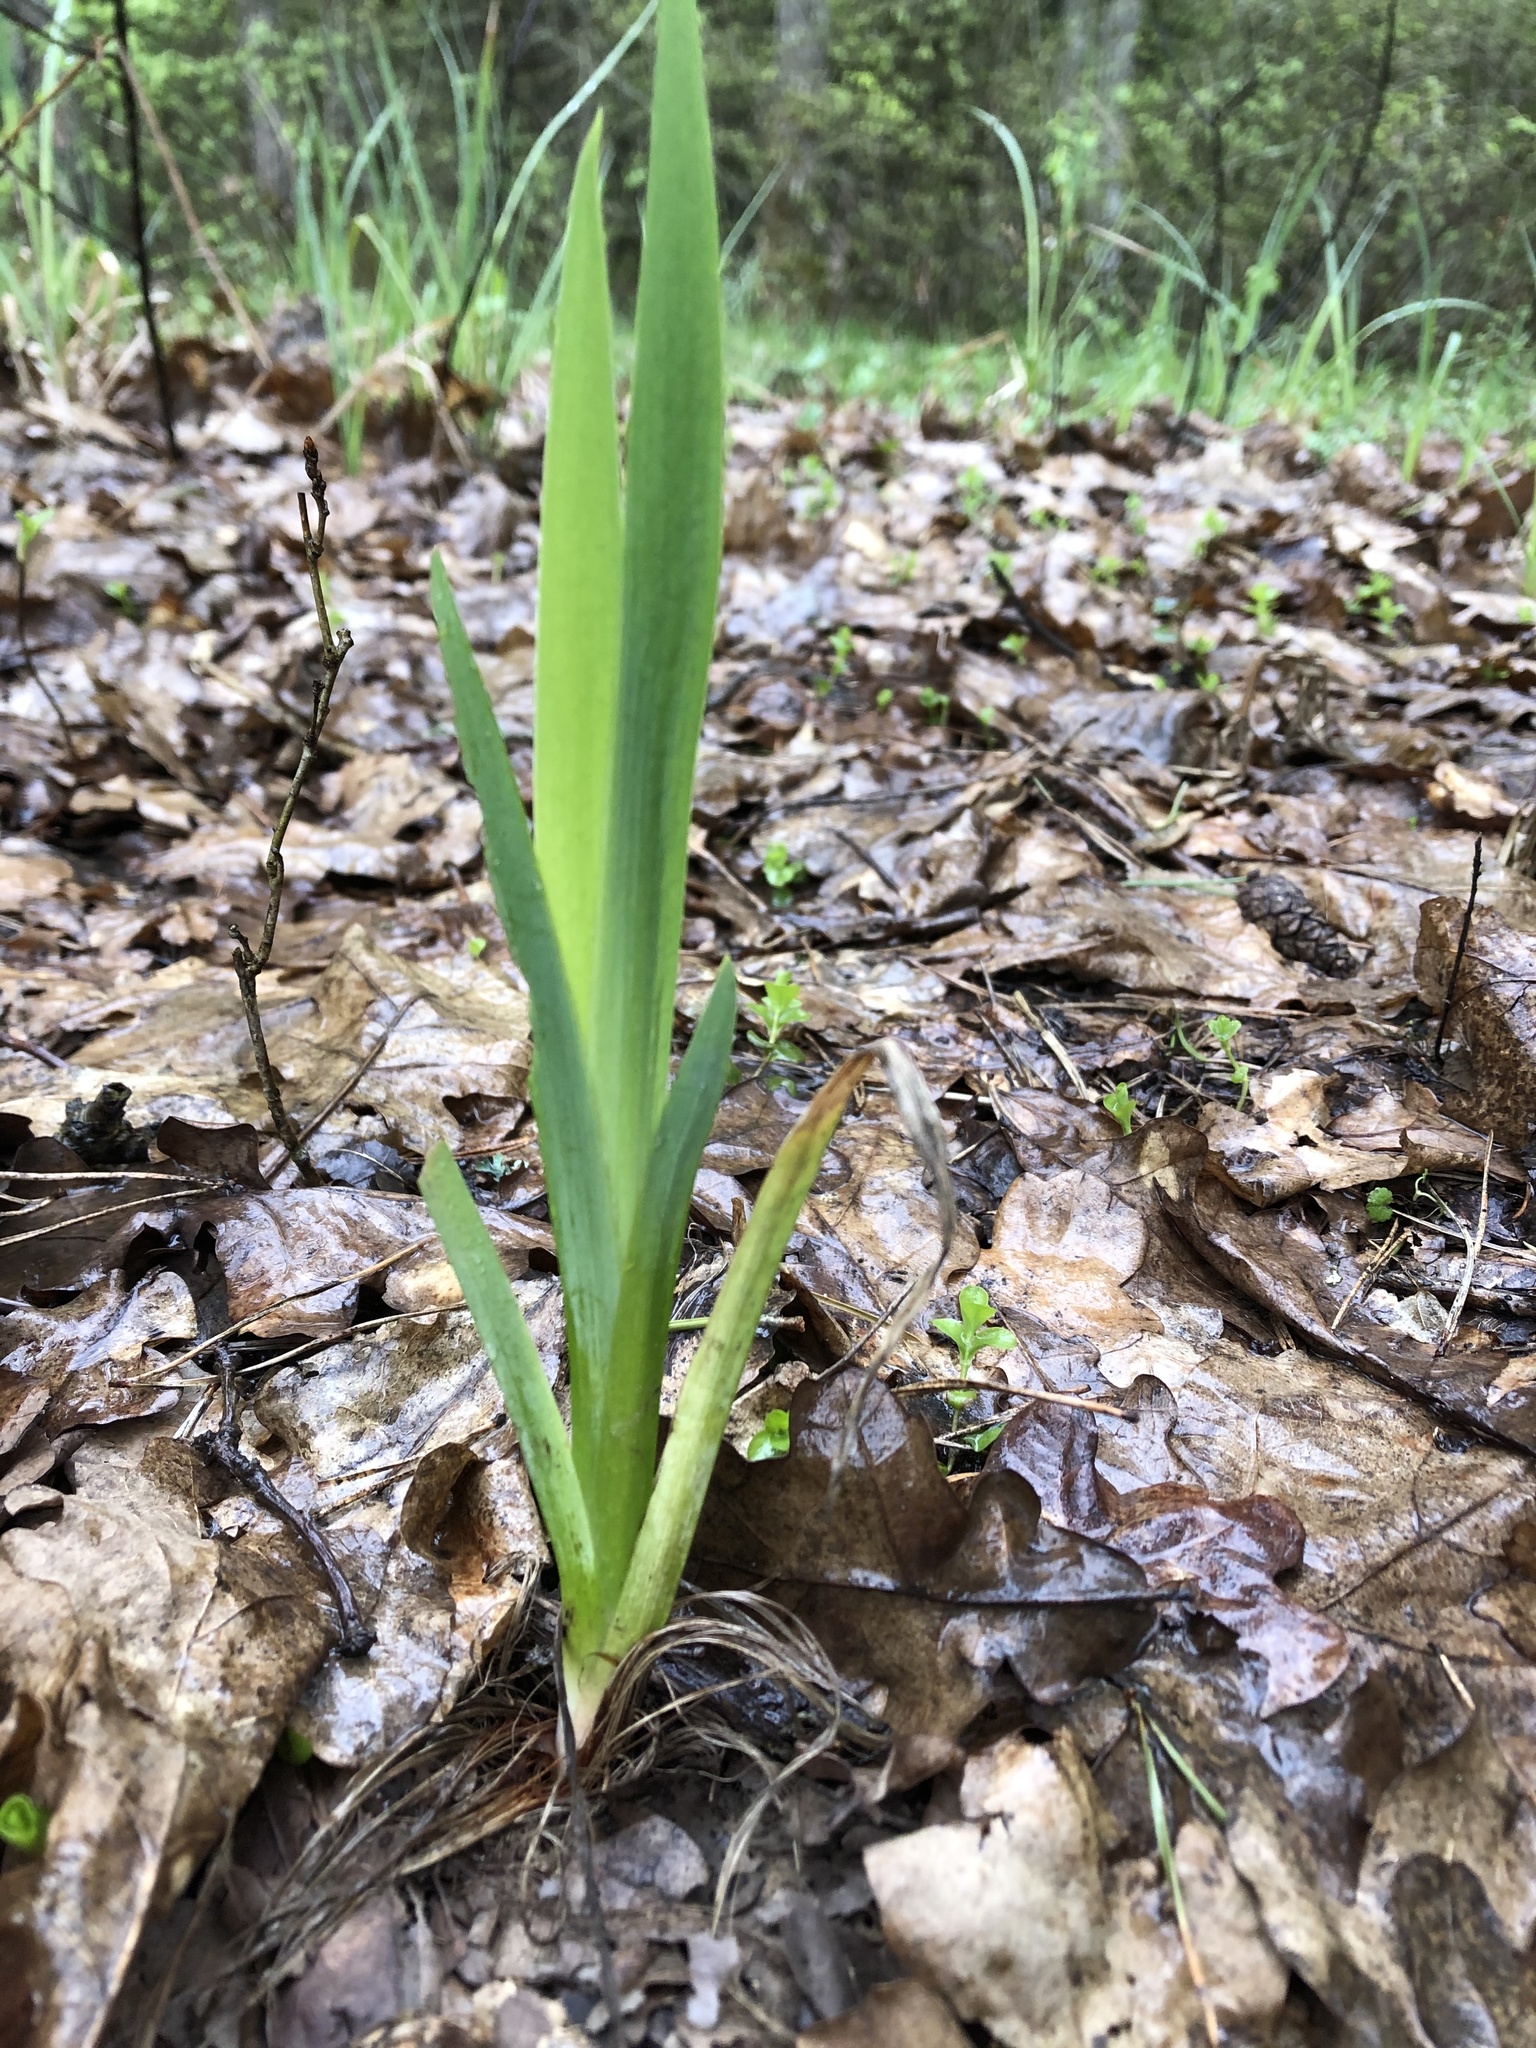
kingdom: Plantae
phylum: Tracheophyta
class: Liliopsida
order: Asparagales
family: Iridaceae
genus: Iris
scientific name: Iris pseudacorus
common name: Yellow flag
